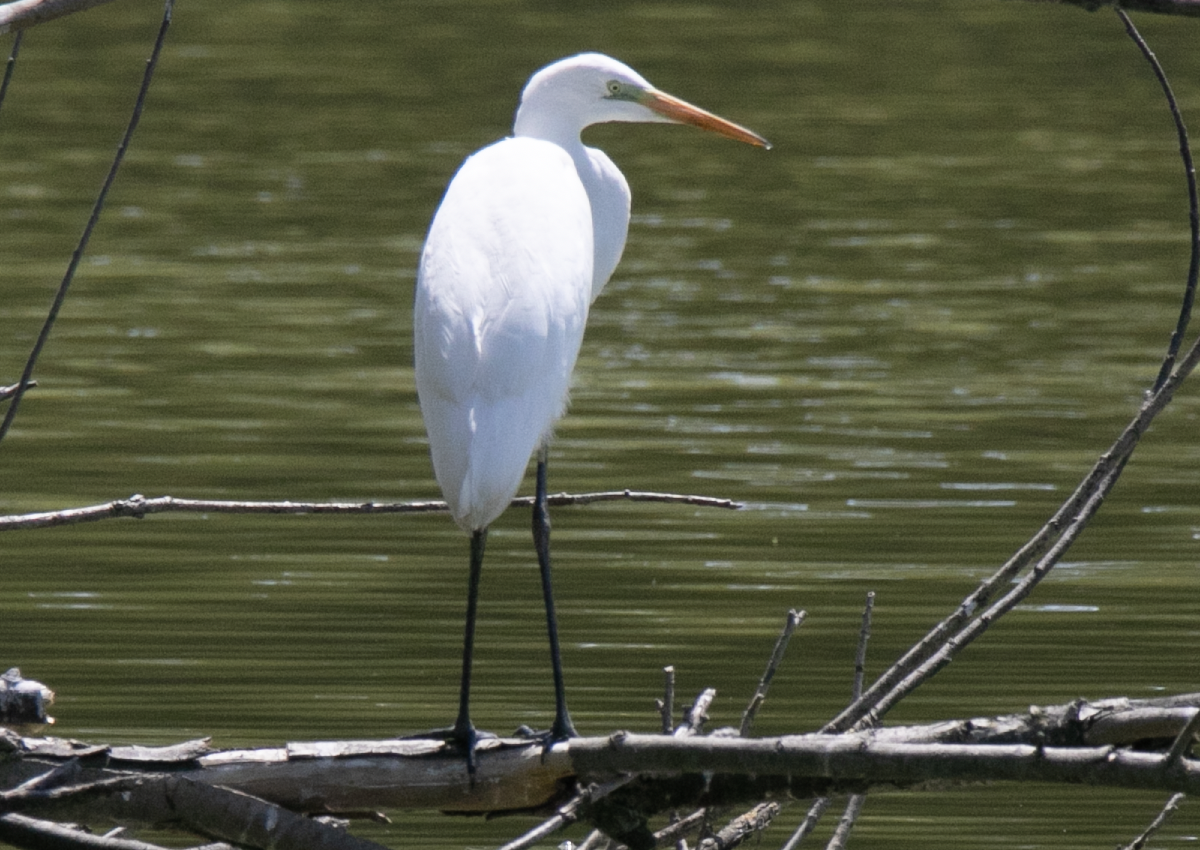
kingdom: Animalia
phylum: Chordata
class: Aves
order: Pelecaniformes
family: Ardeidae
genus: Ardea
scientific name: Ardea alba
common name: Great egret
